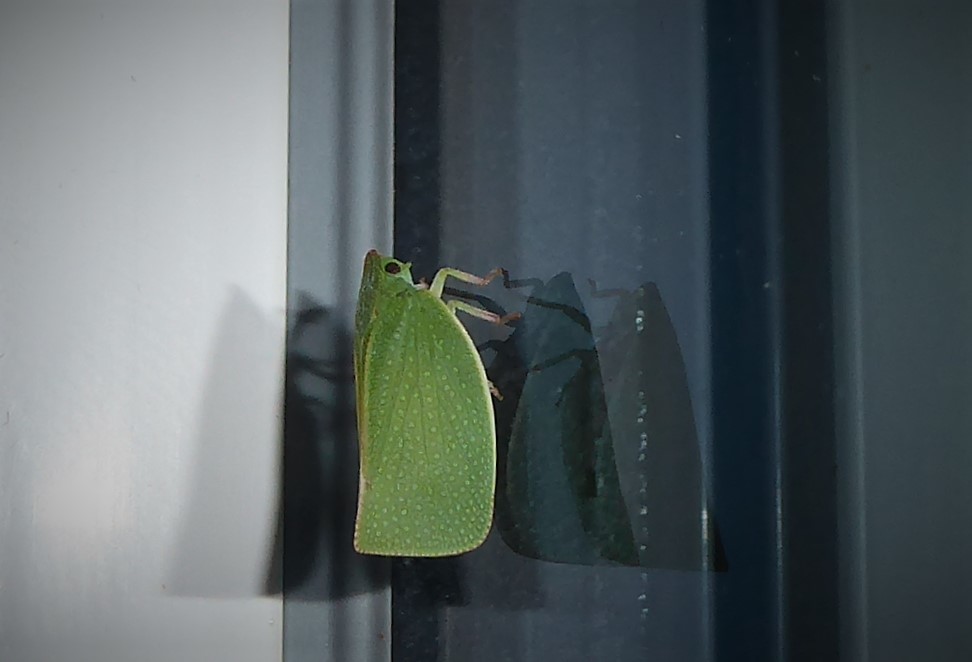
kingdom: Animalia
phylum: Arthropoda
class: Insecta
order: Hemiptera
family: Flatidae
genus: Siphanta
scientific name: Siphanta acuta
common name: Torpedo bug
